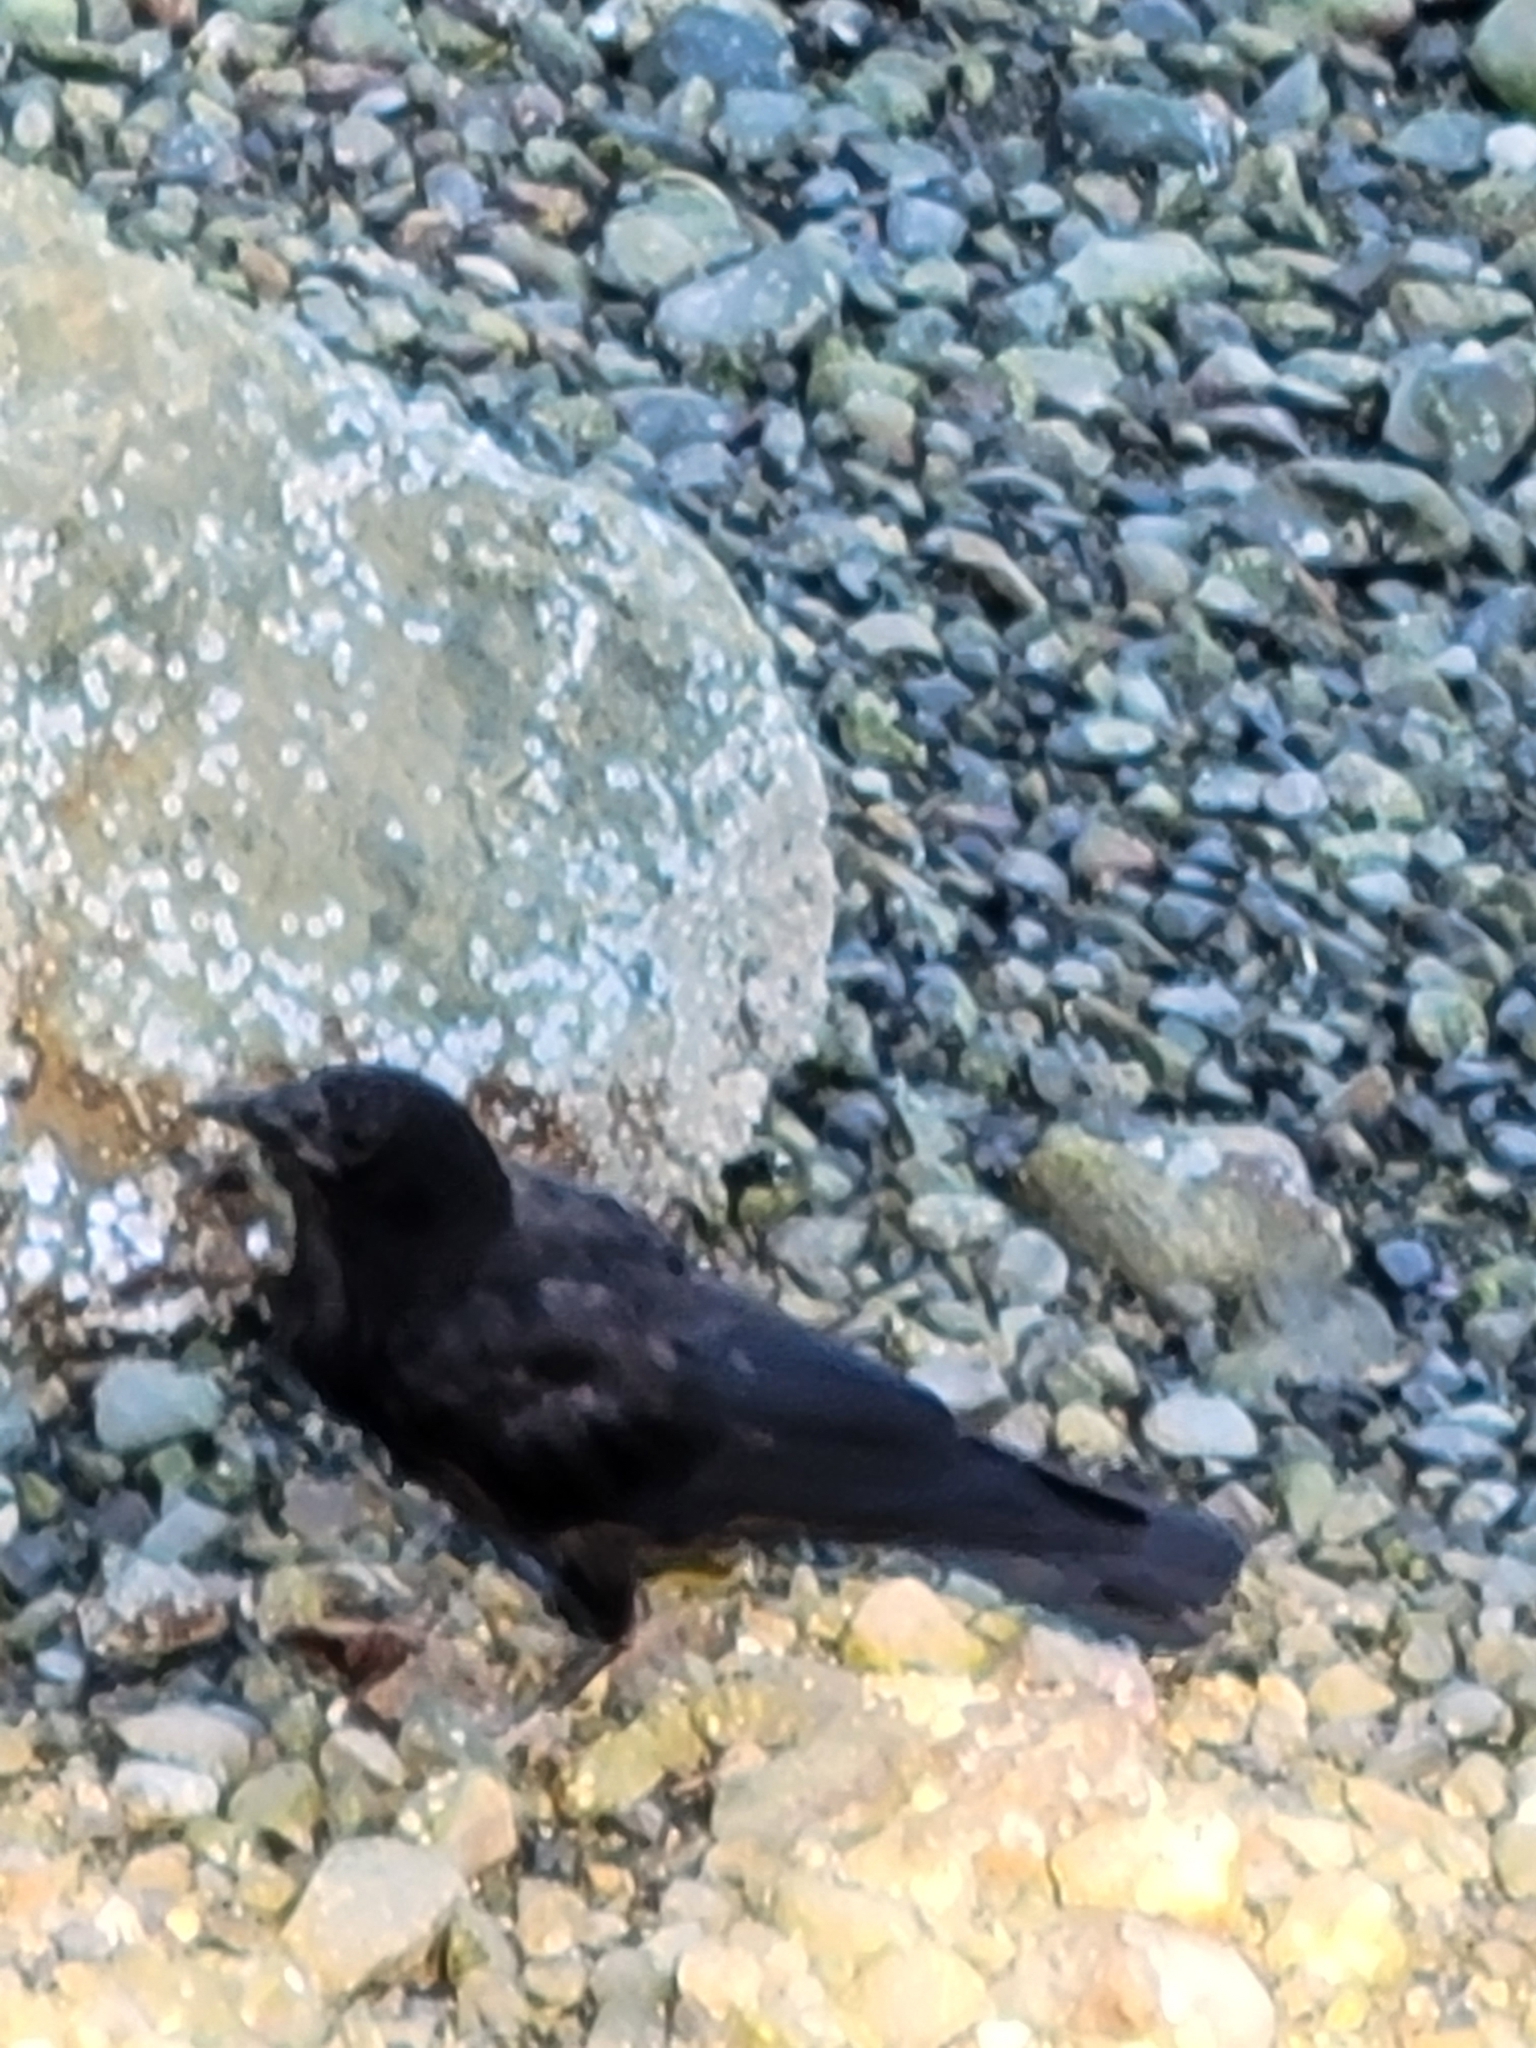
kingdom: Animalia
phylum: Chordata
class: Aves
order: Passeriformes
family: Corvidae
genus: Corvus
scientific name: Corvus brachyrhynchos
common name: American crow
